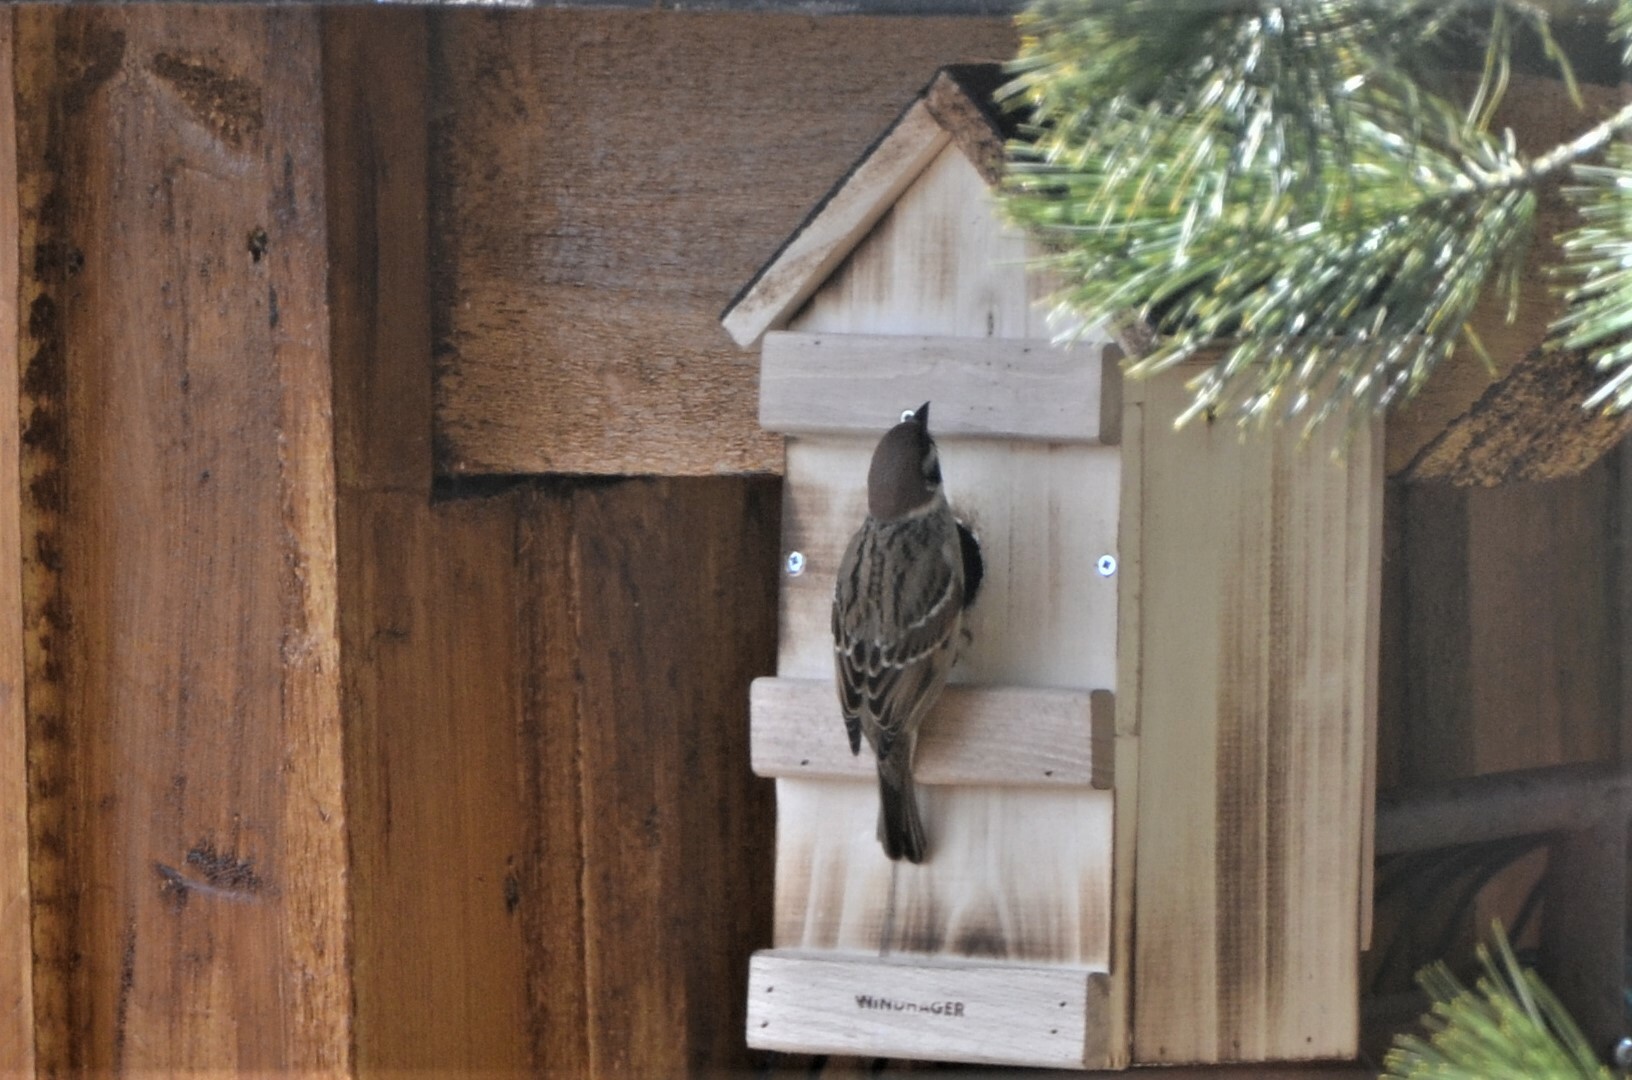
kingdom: Animalia
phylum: Chordata
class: Aves
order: Passeriformes
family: Passeridae
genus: Passer
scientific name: Passer montanus
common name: Eurasian tree sparrow
